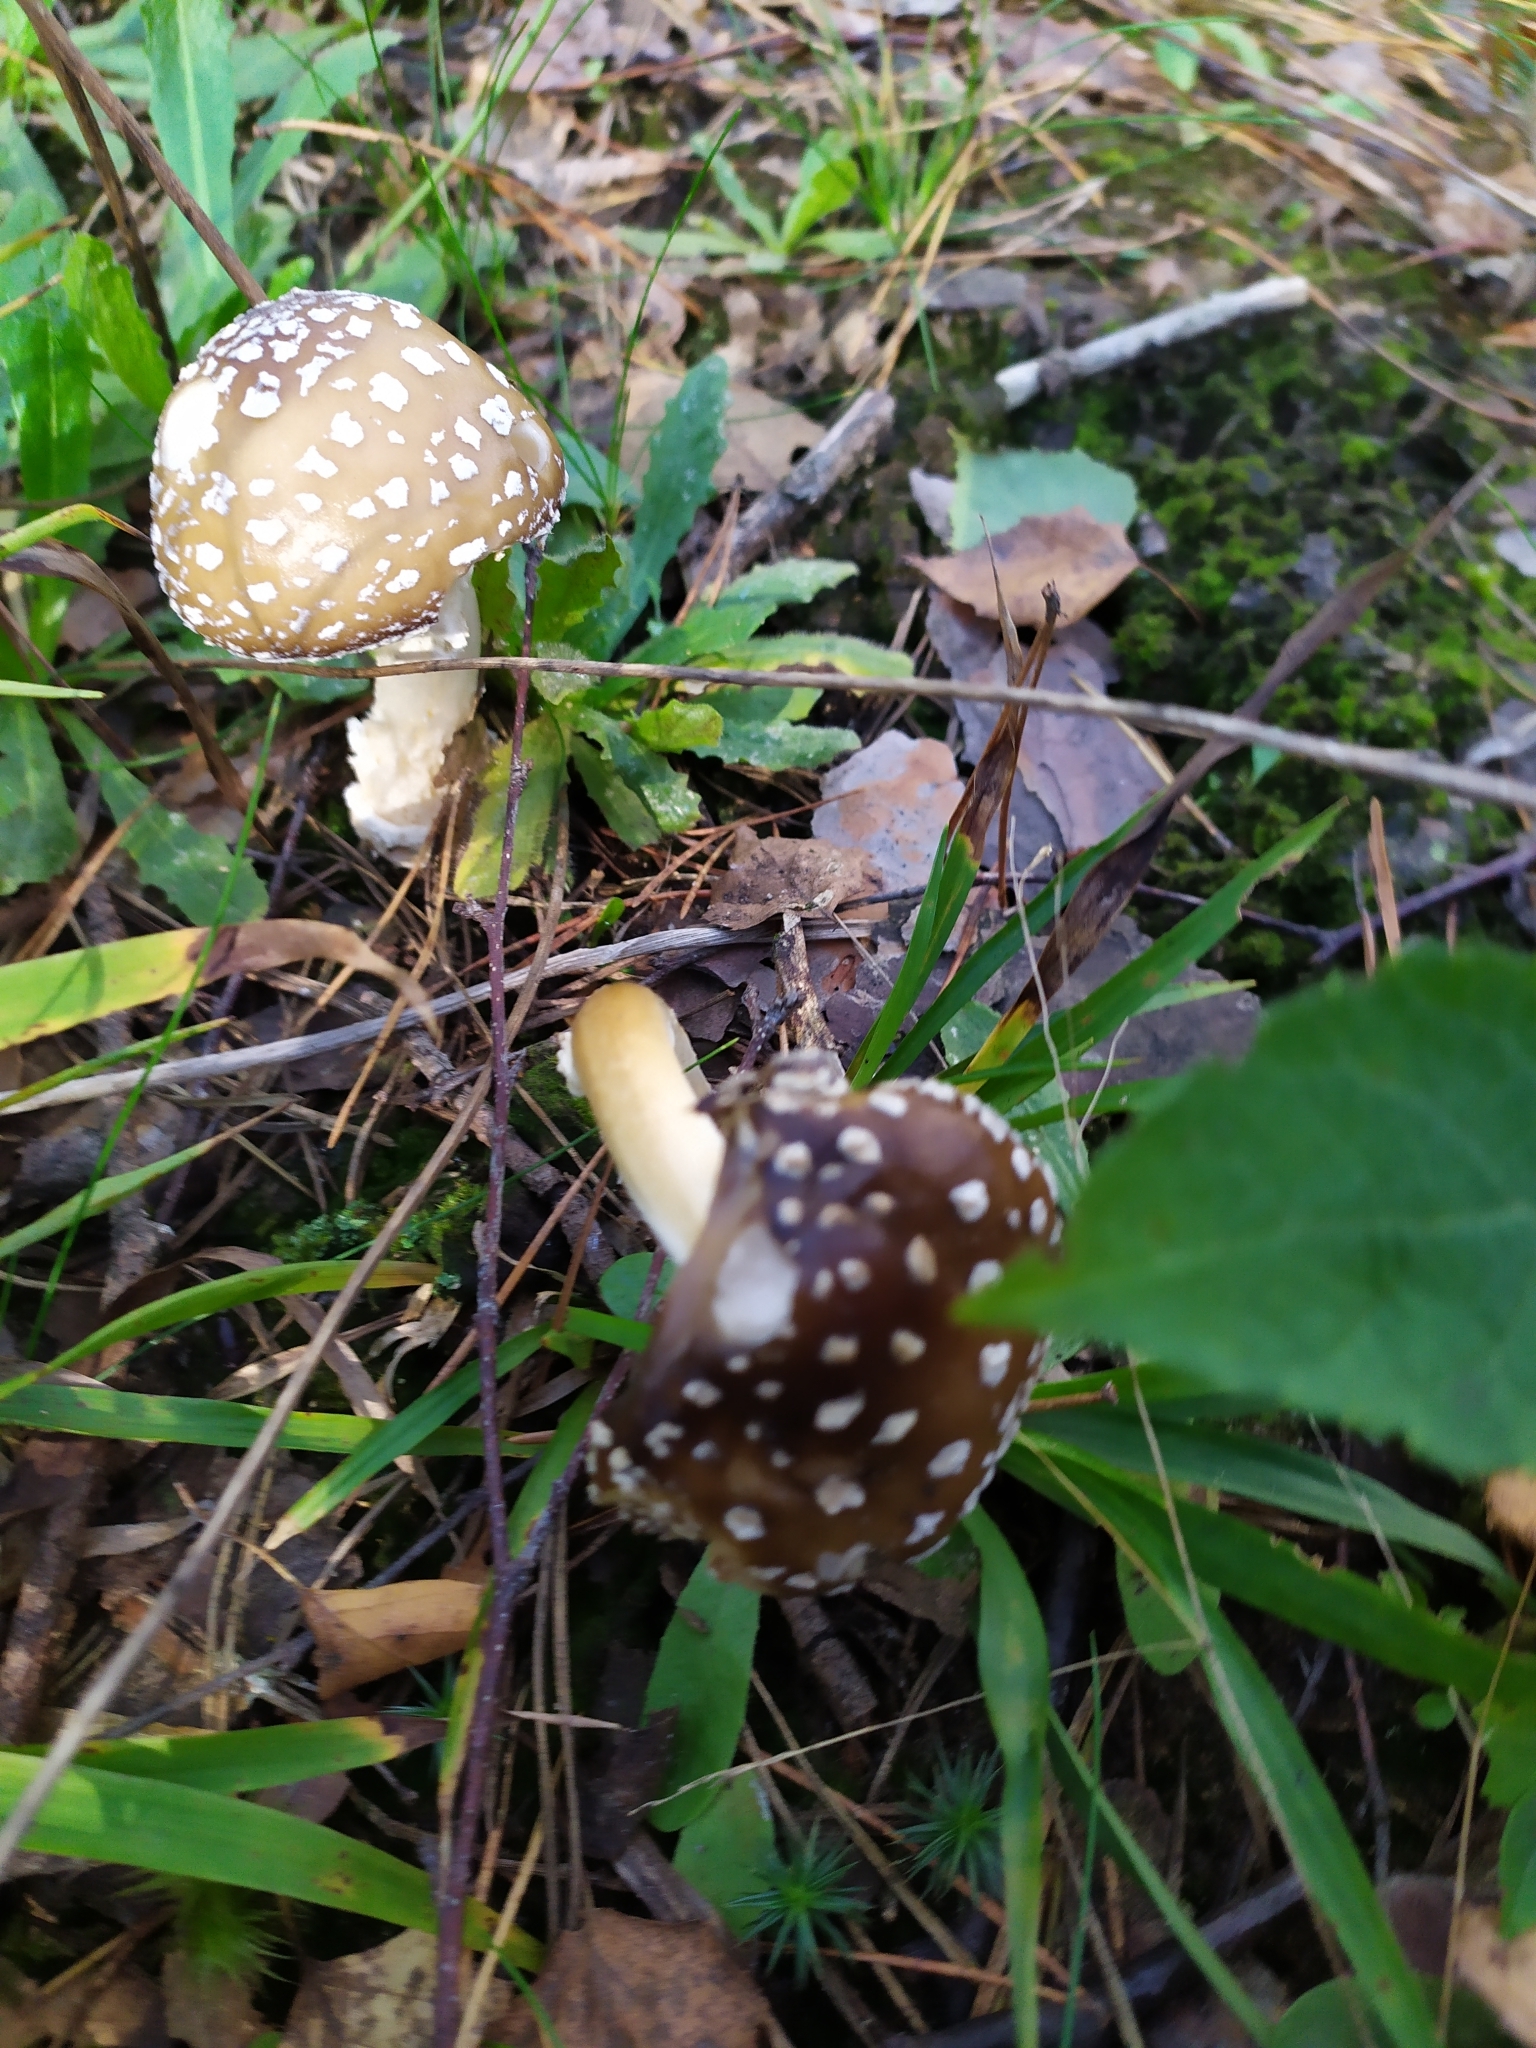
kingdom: Fungi
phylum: Basidiomycota
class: Agaricomycetes
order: Agaricales
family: Amanitaceae
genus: Amanita
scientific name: Amanita pantherina
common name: Panthercap
